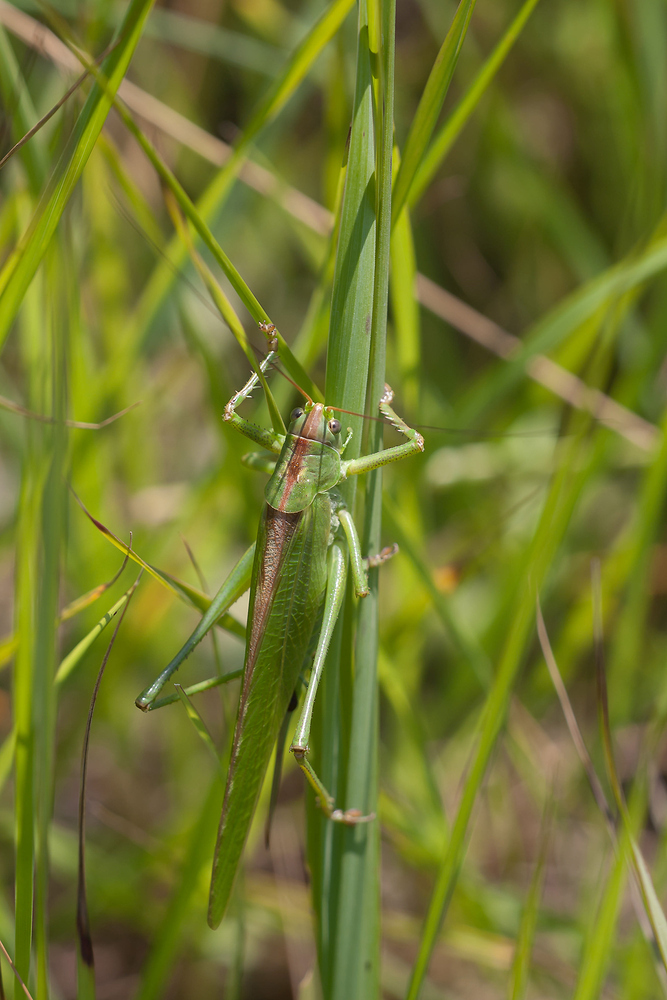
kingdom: Animalia
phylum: Arthropoda
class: Insecta
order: Orthoptera
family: Tettigoniidae
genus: Tettigonia
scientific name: Tettigonia viridissima
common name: Great green bush-cricket
